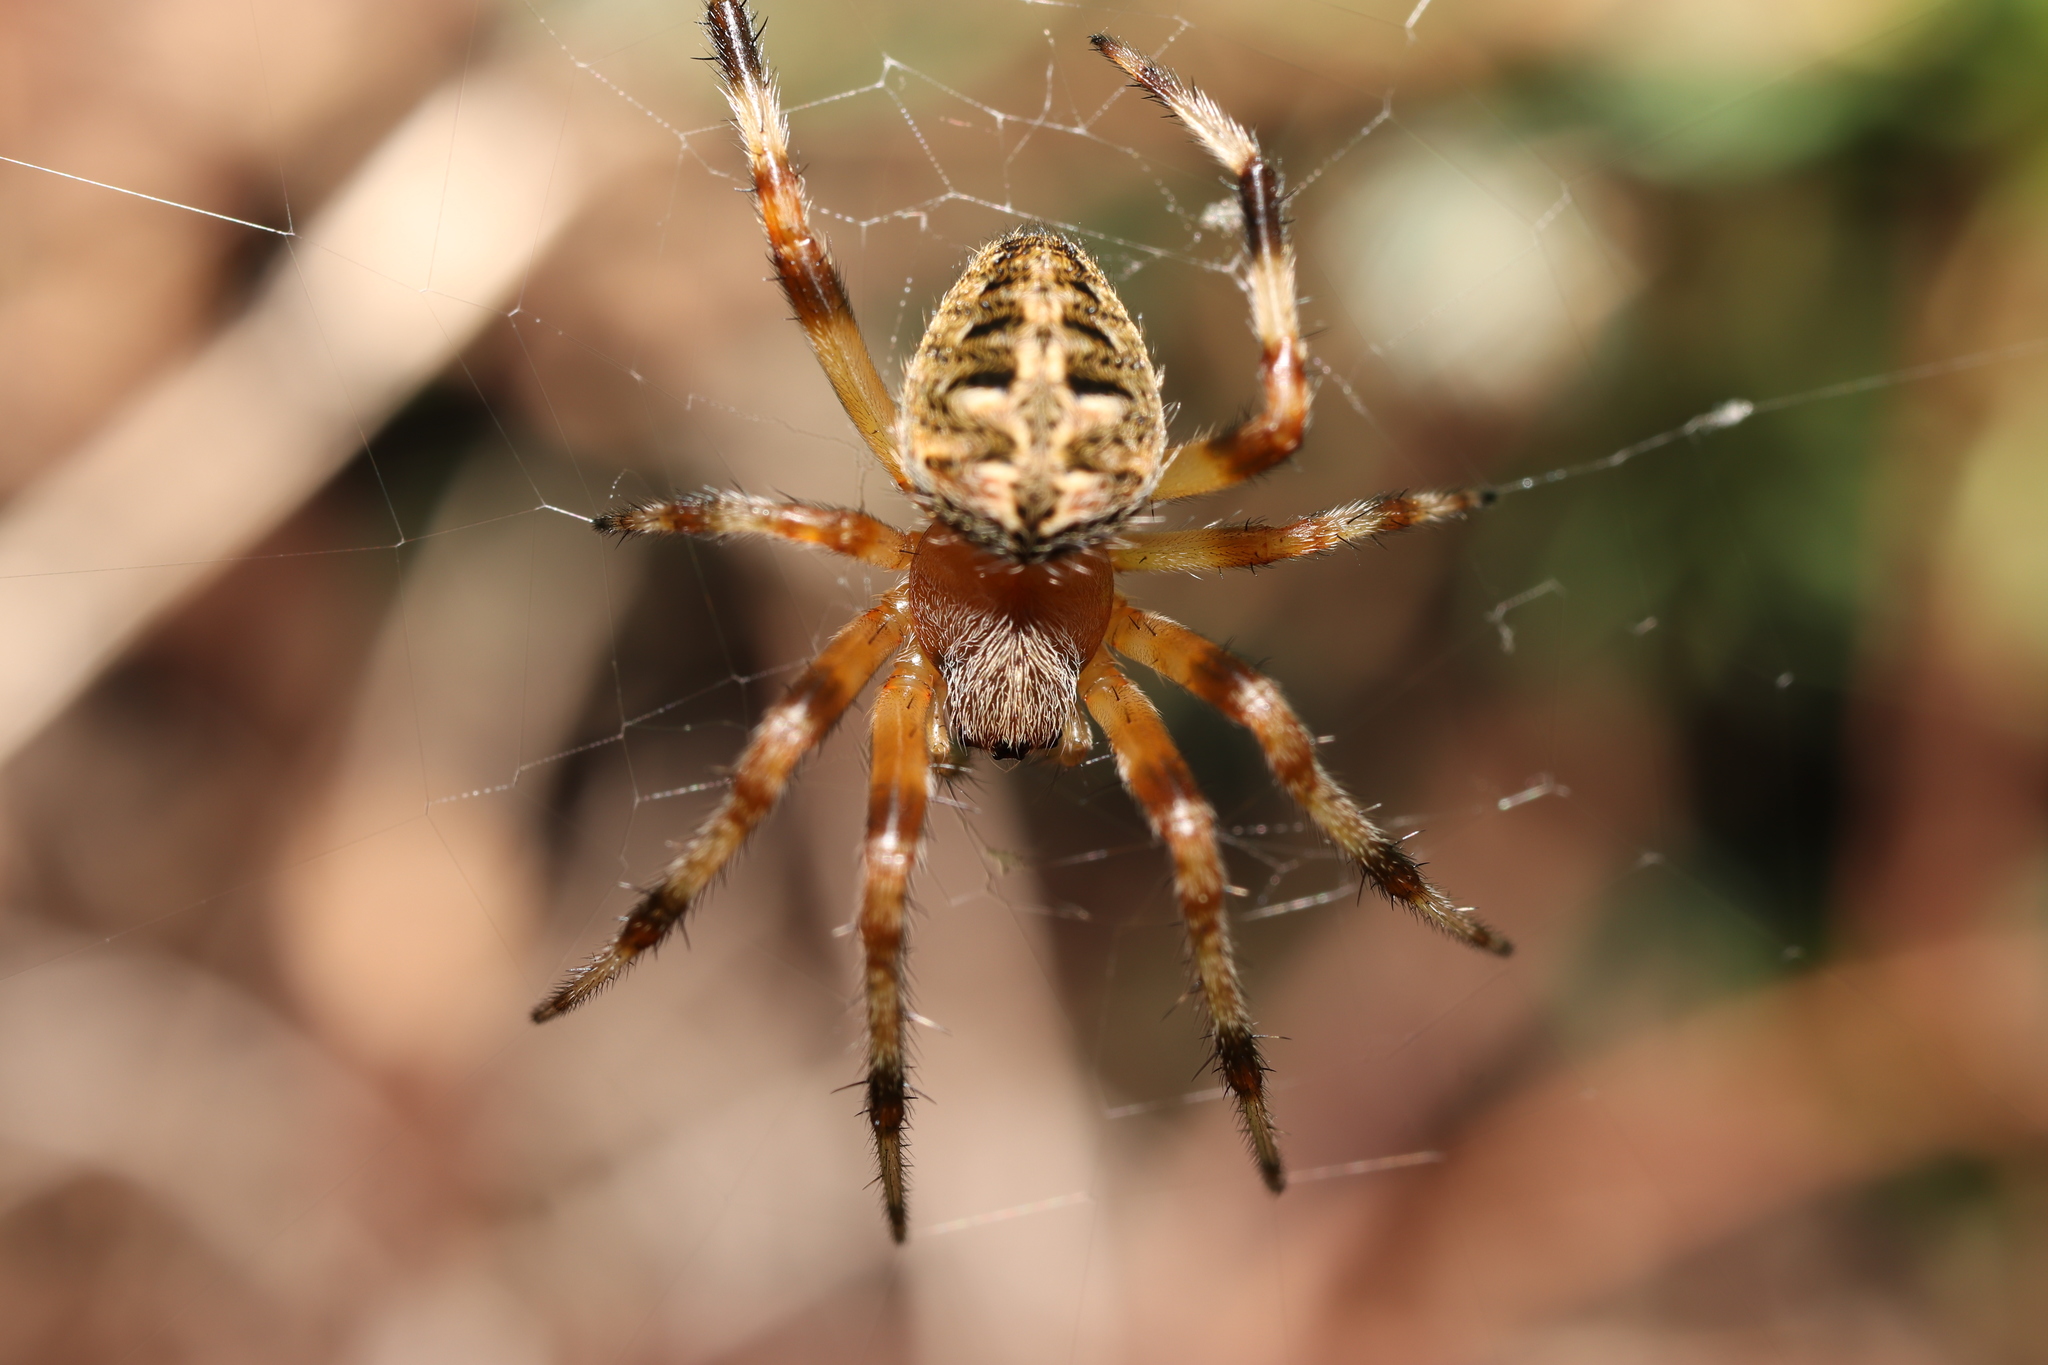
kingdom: Animalia
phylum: Arthropoda
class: Arachnida
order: Araneae
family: Araneidae
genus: Neoscona
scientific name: Neoscona scylla
